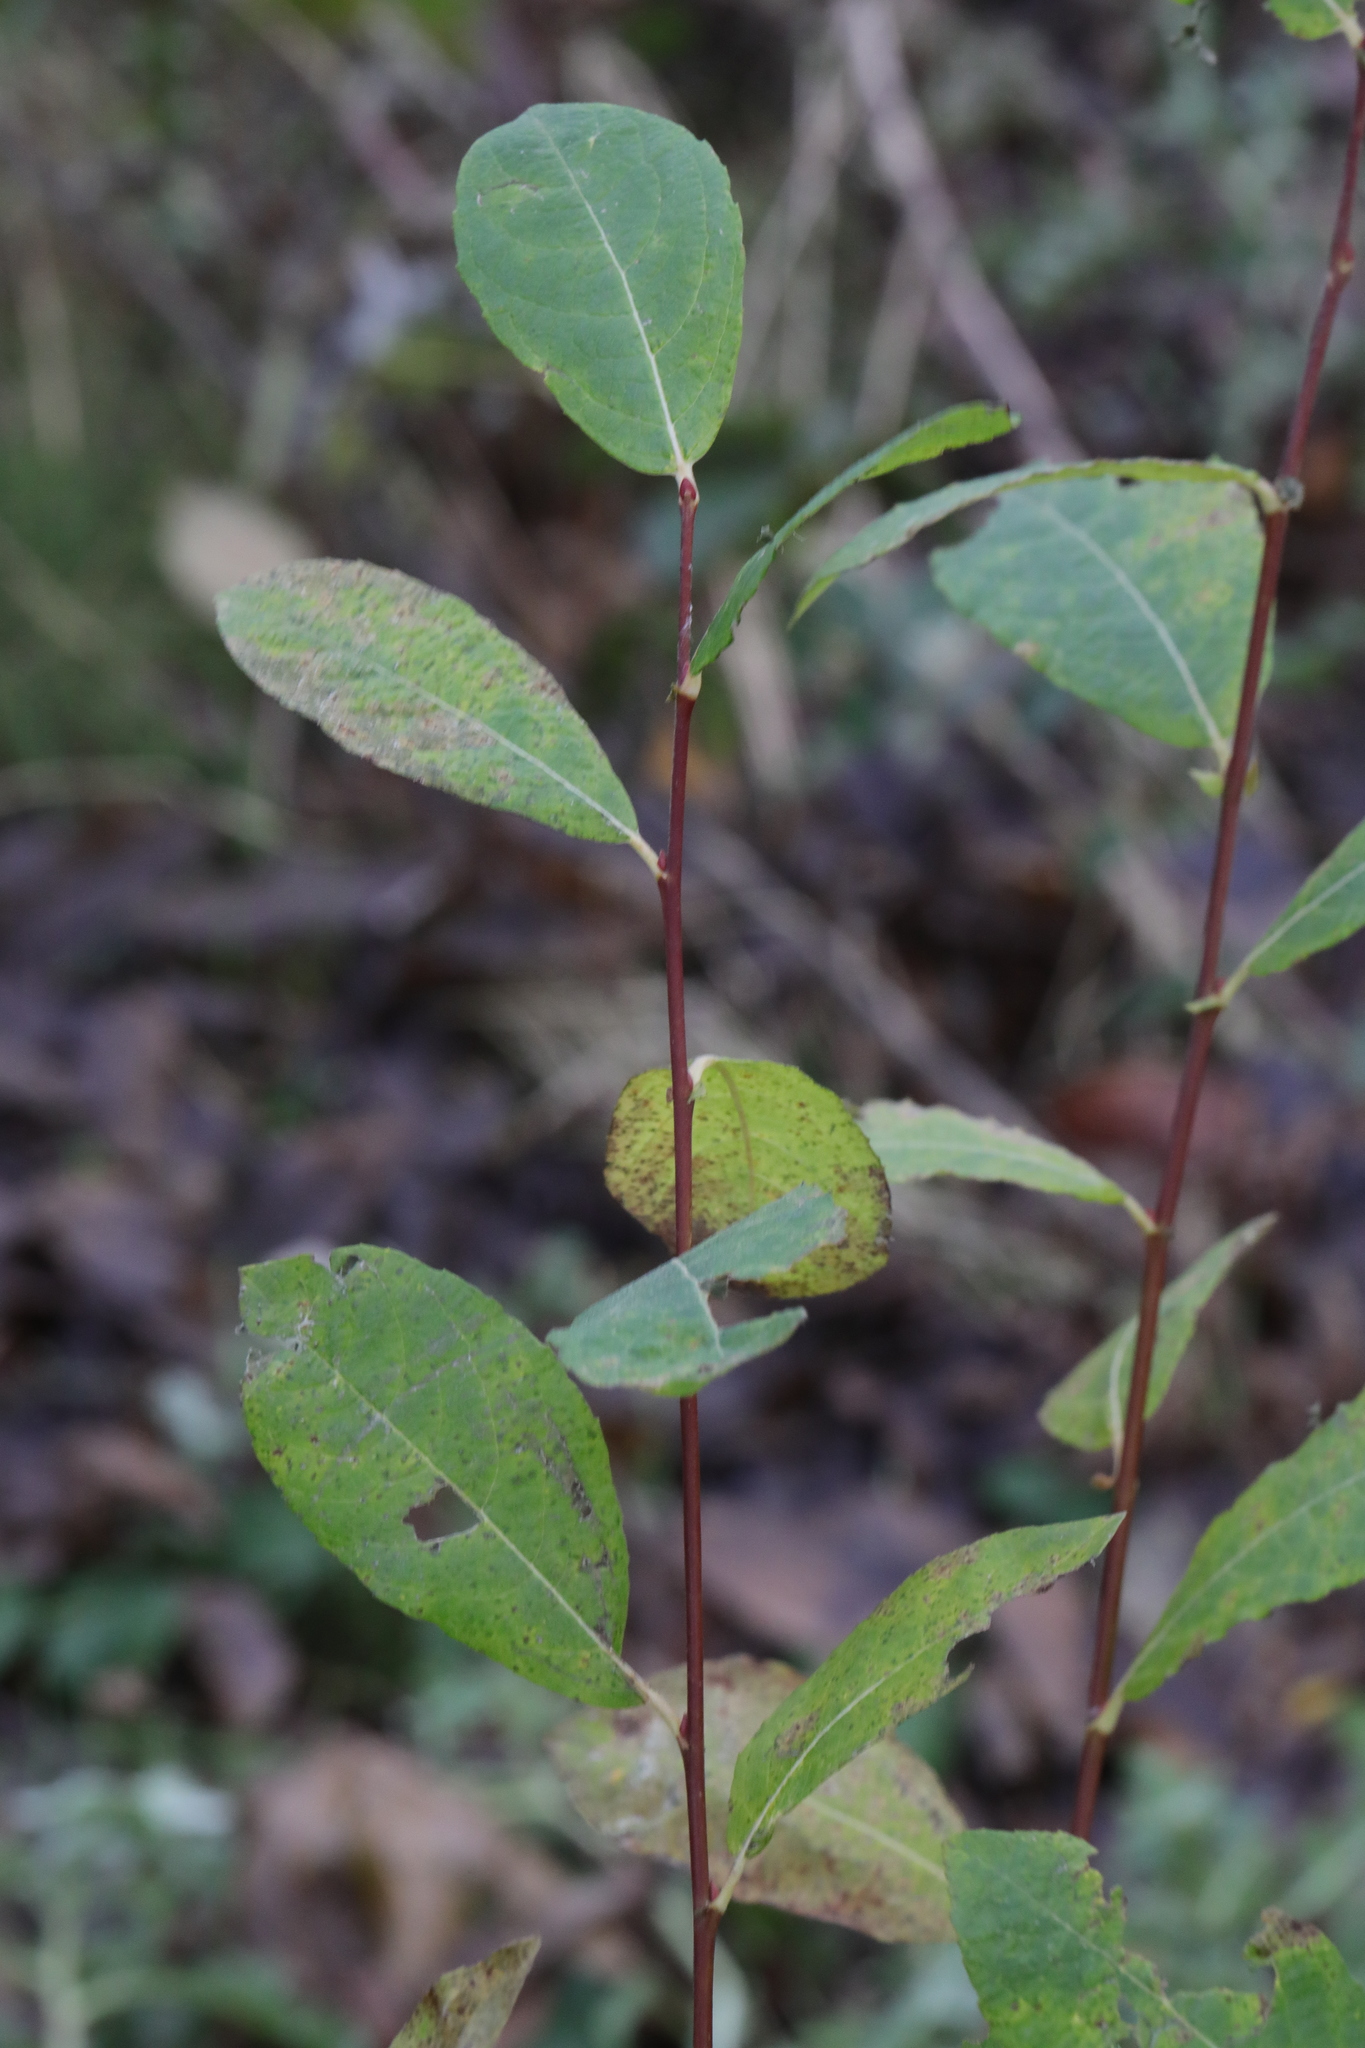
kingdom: Plantae
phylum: Tracheophyta
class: Magnoliopsida
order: Malpighiales
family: Salicaceae
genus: Salix
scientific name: Salix cinerea
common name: Common sallow
